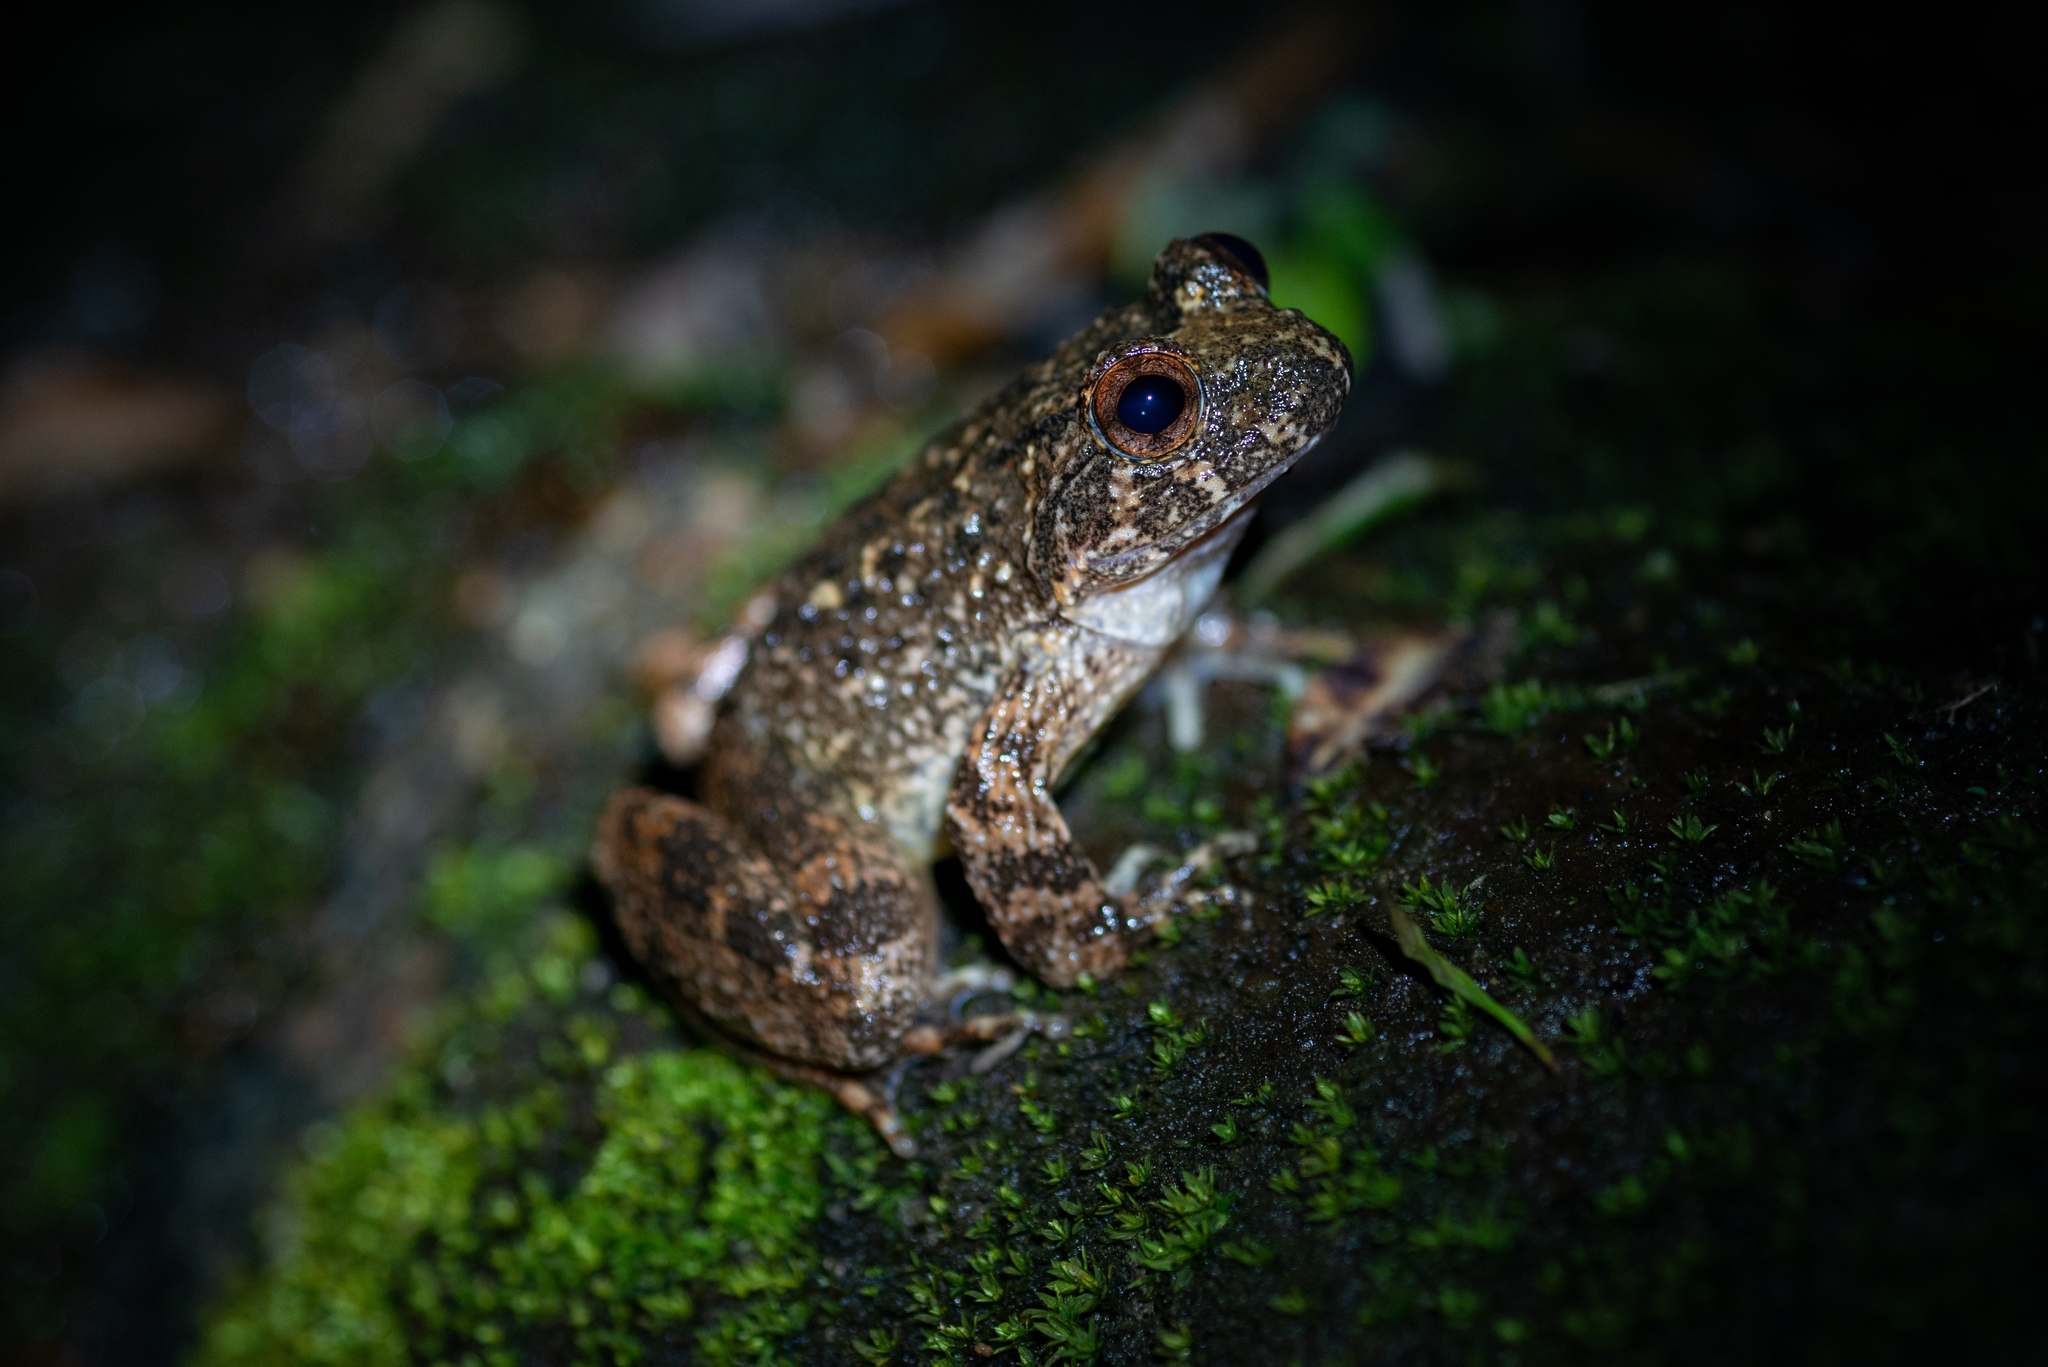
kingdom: Animalia
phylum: Chordata
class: Amphibia
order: Anura
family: Dicroglossidae
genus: Quasipaa
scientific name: Quasipaa exilispinosa
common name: Hong kong paa frog
